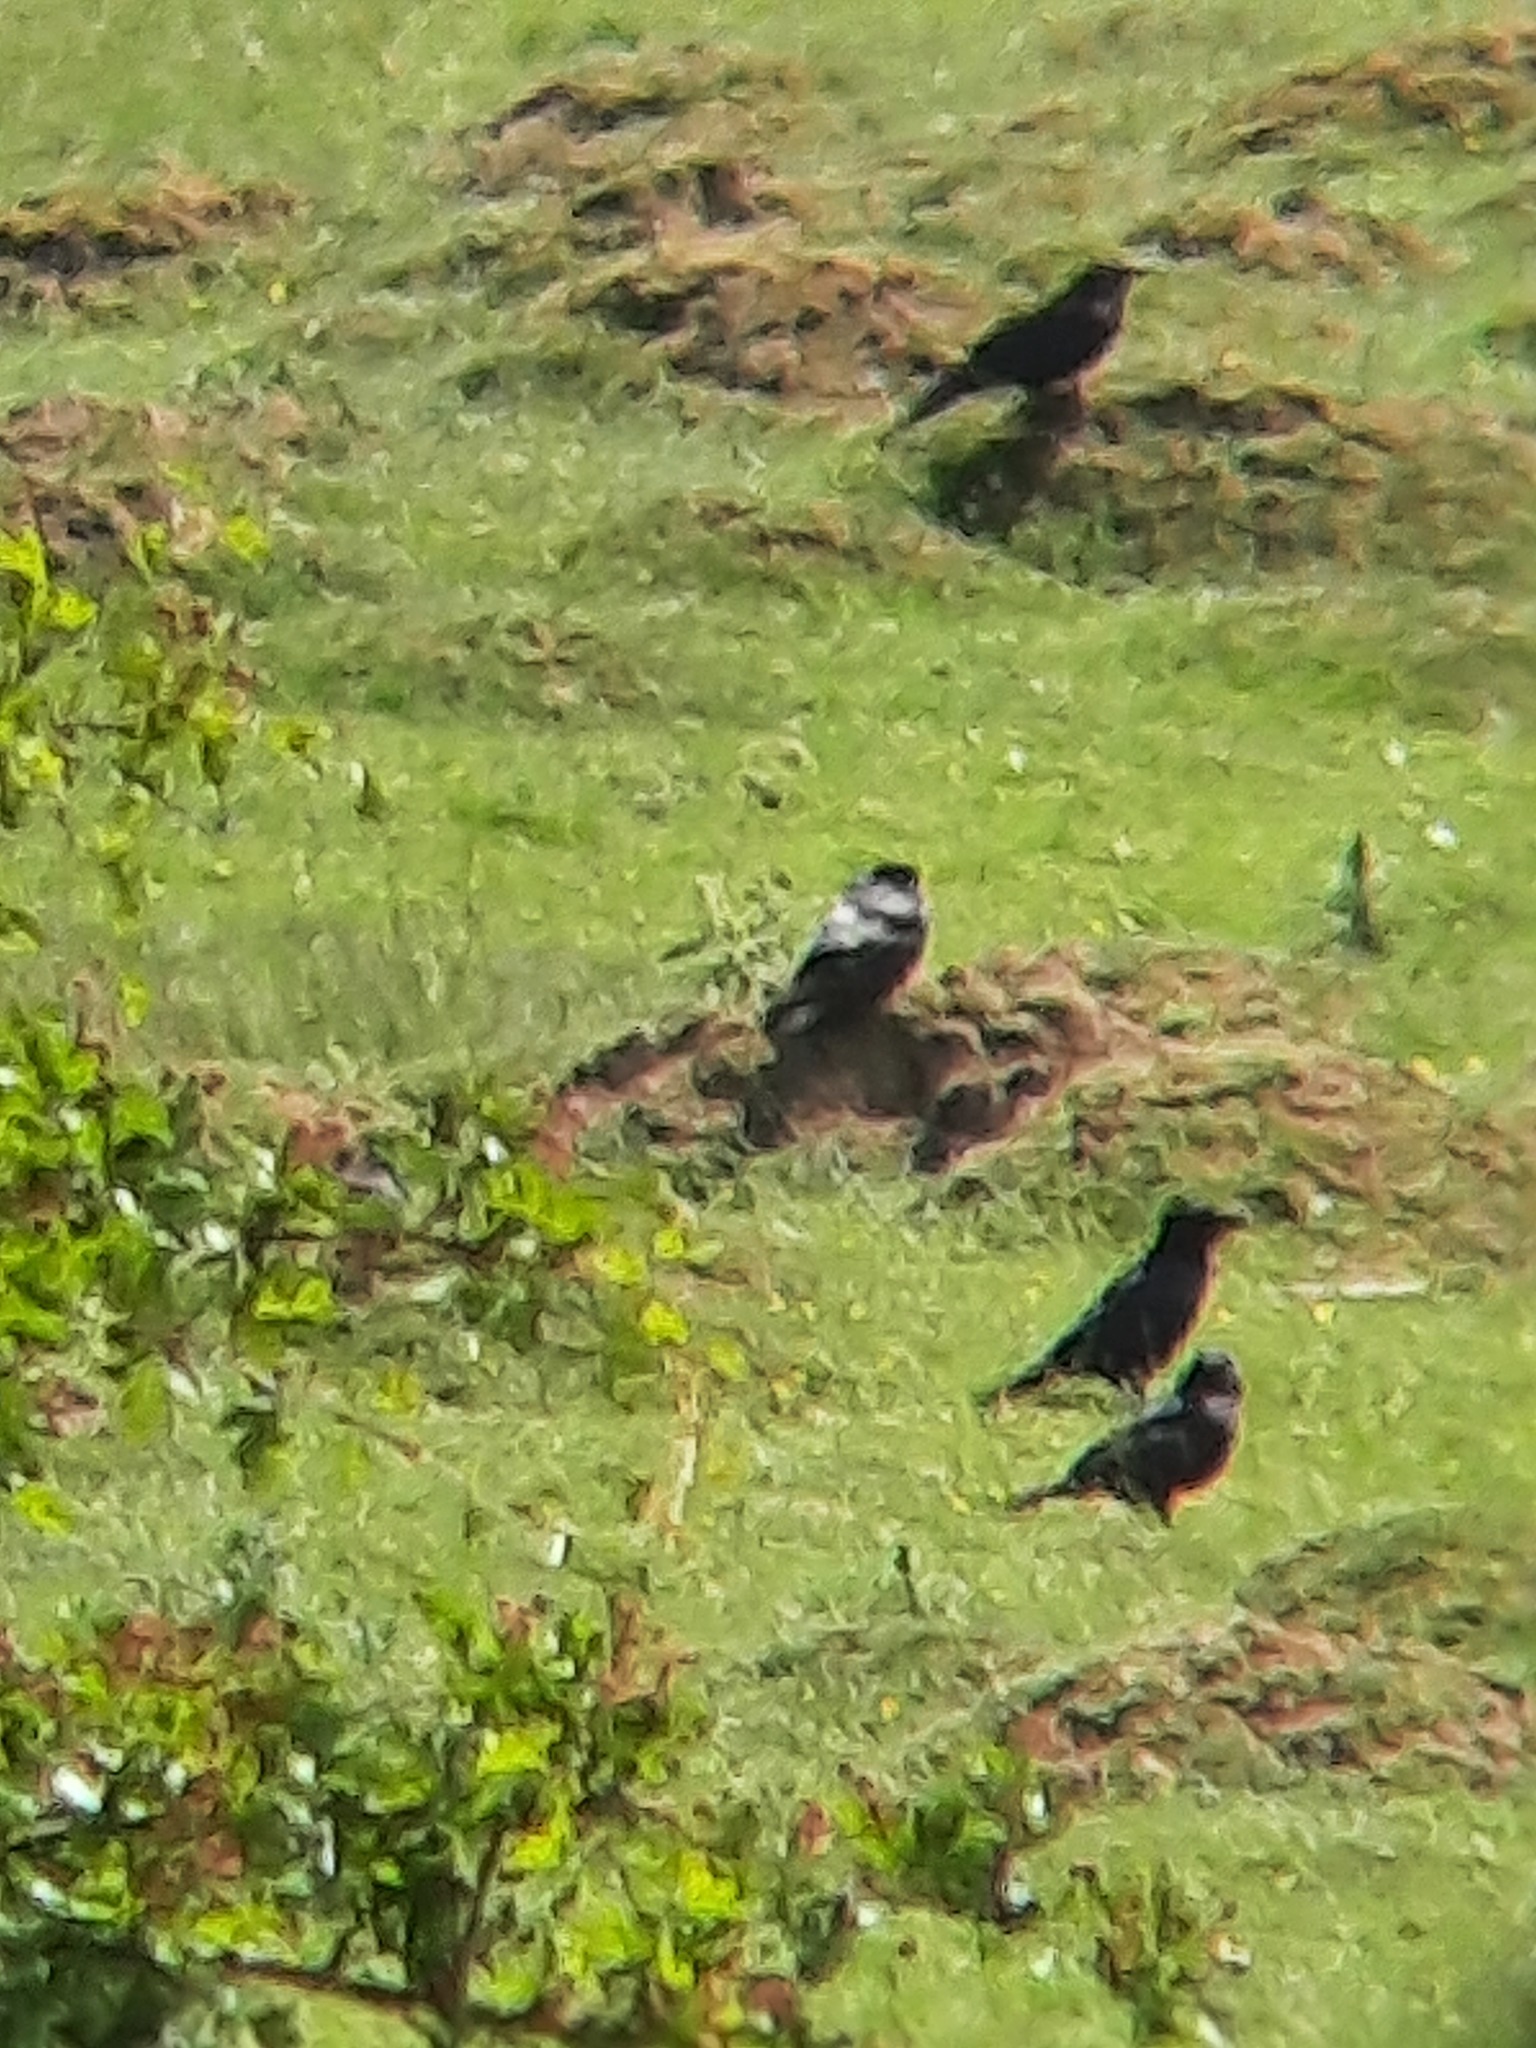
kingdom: Animalia
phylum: Chordata
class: Aves
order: Passeriformes
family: Corvidae
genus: Coloeus
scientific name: Coloeus monedula
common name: Western jackdaw
